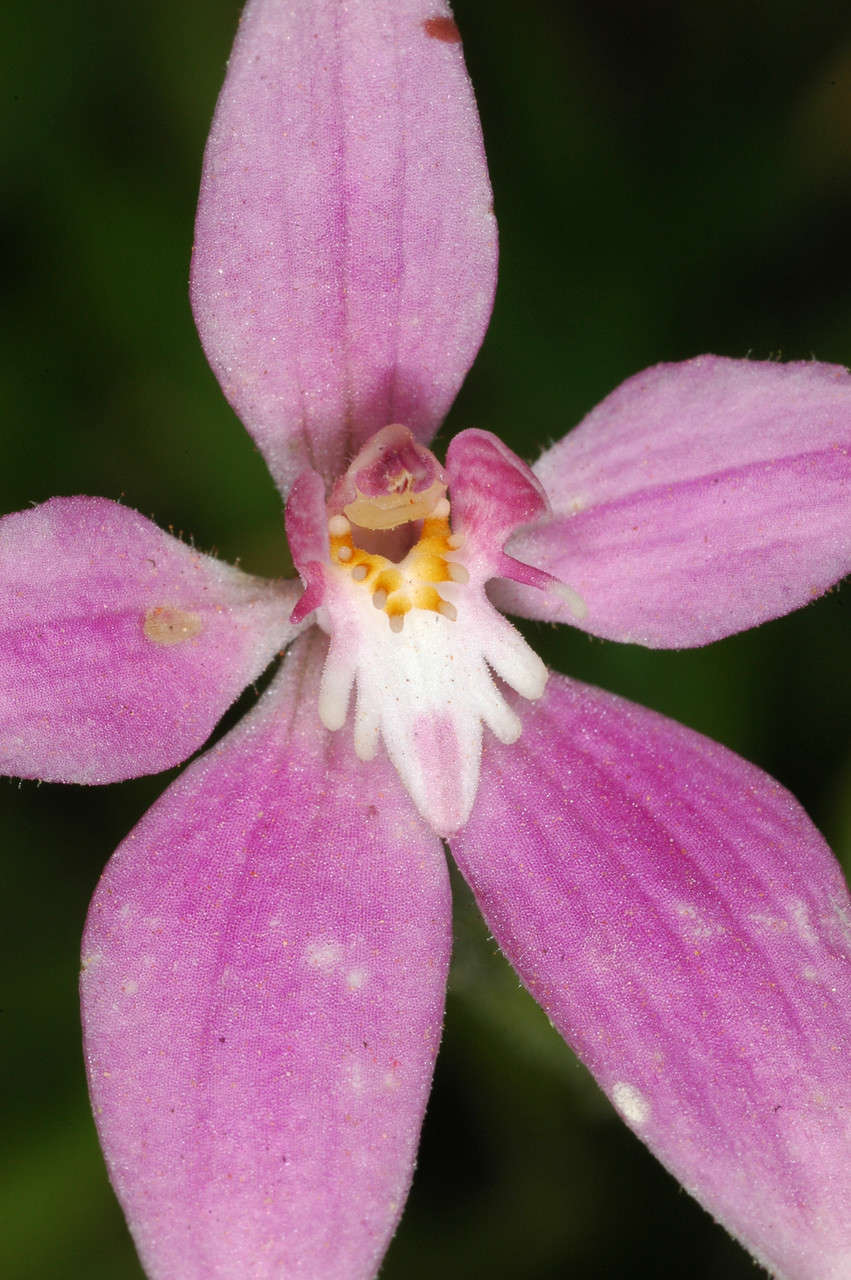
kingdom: Plantae
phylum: Tracheophyta
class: Liliopsida
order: Asparagales
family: Orchidaceae
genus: Caladenia
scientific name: Caladenia latifolia
